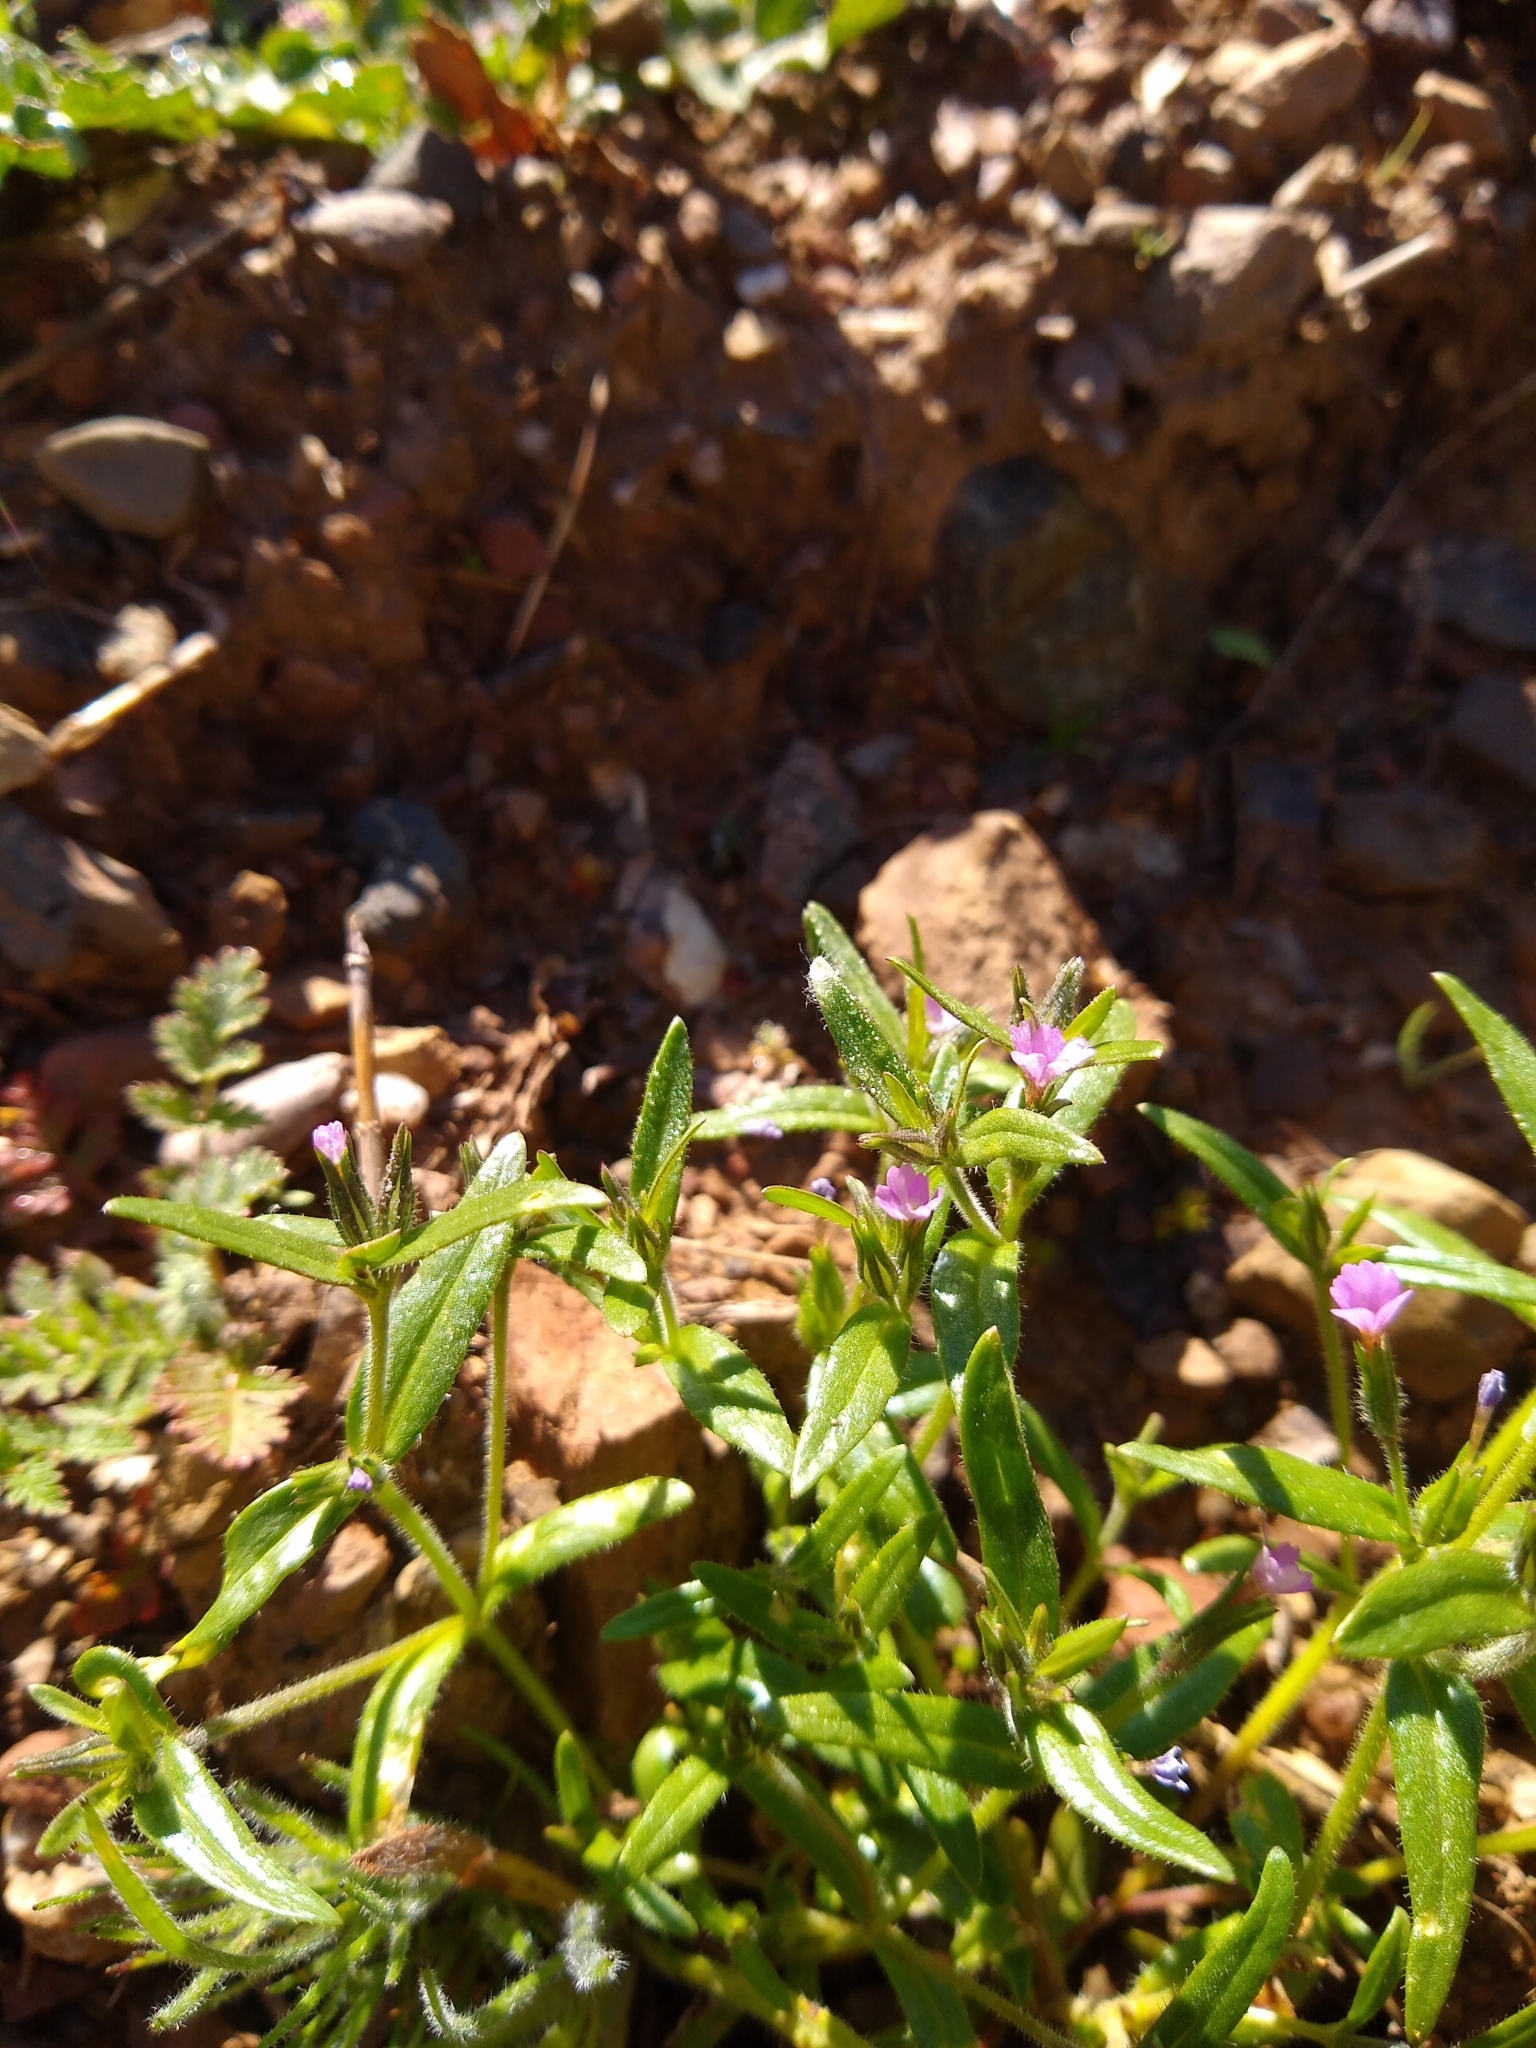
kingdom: Plantae
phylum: Tracheophyta
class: Magnoliopsida
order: Ericales
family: Polemoniaceae
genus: Phlox
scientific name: Phlox gracilis
